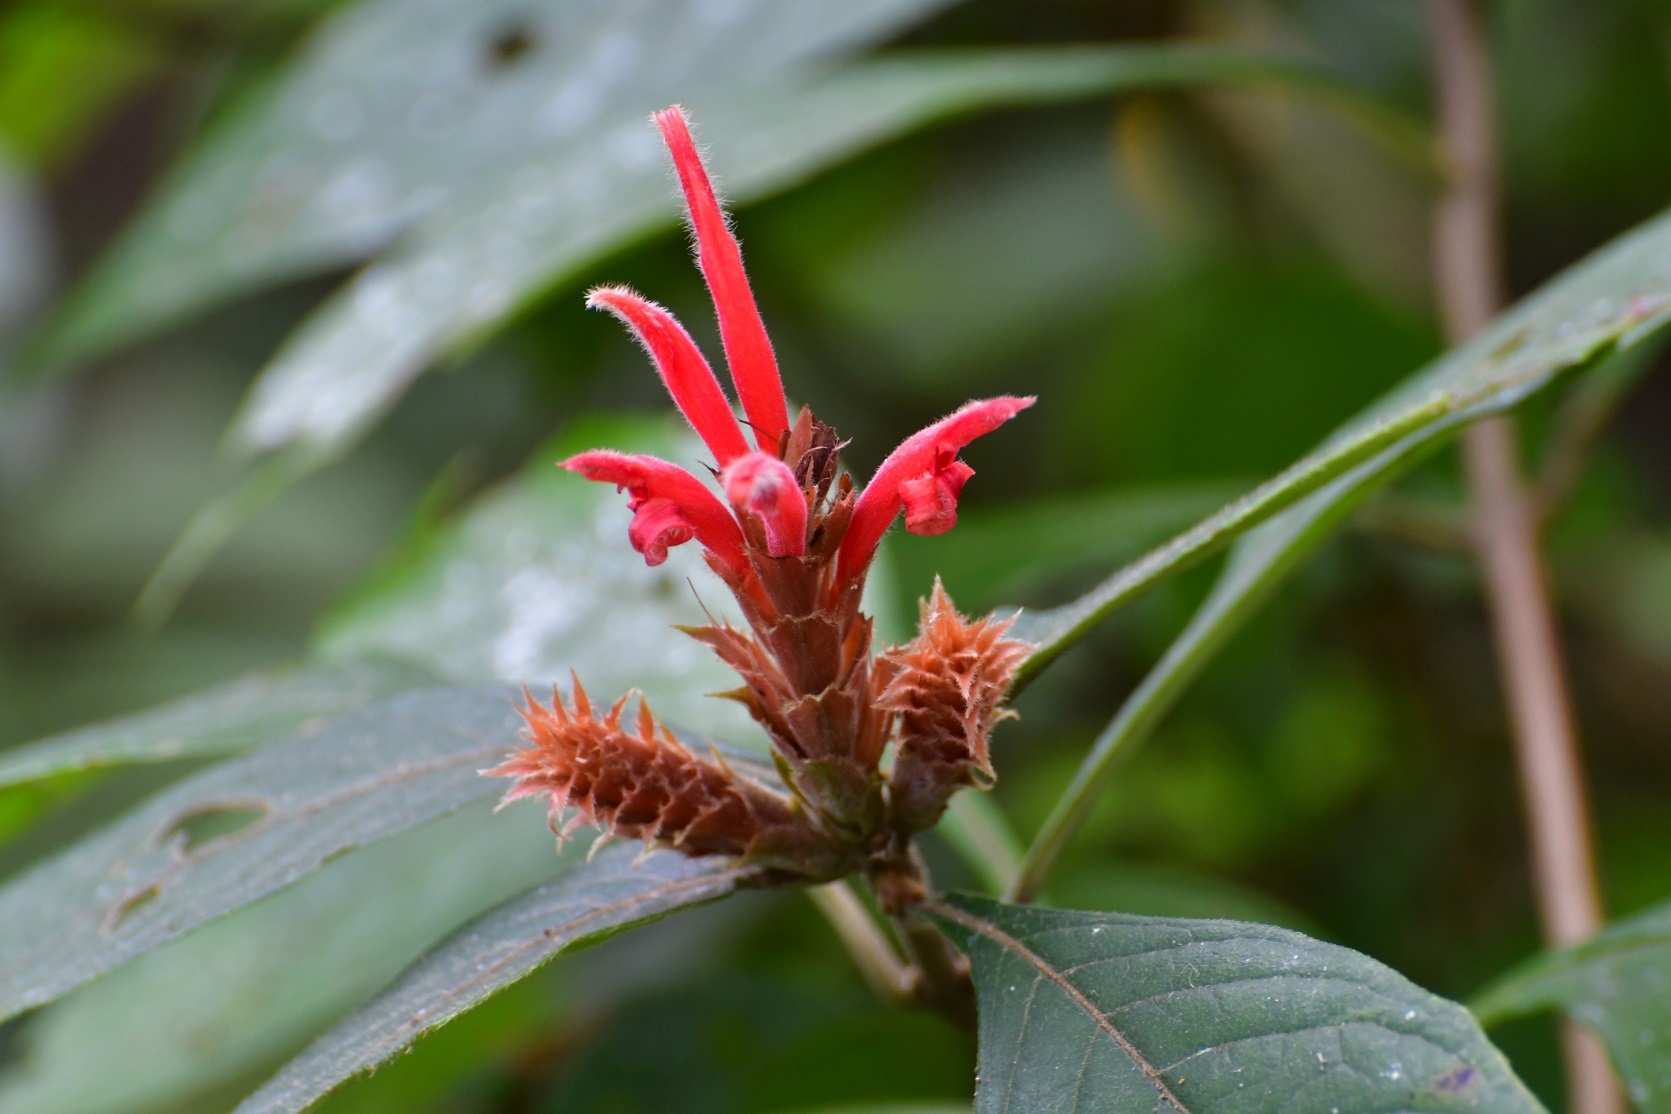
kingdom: Plantae
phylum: Tracheophyta
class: Magnoliopsida
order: Lamiales
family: Acanthaceae
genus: Aphelandra
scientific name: Aphelandra scabra
